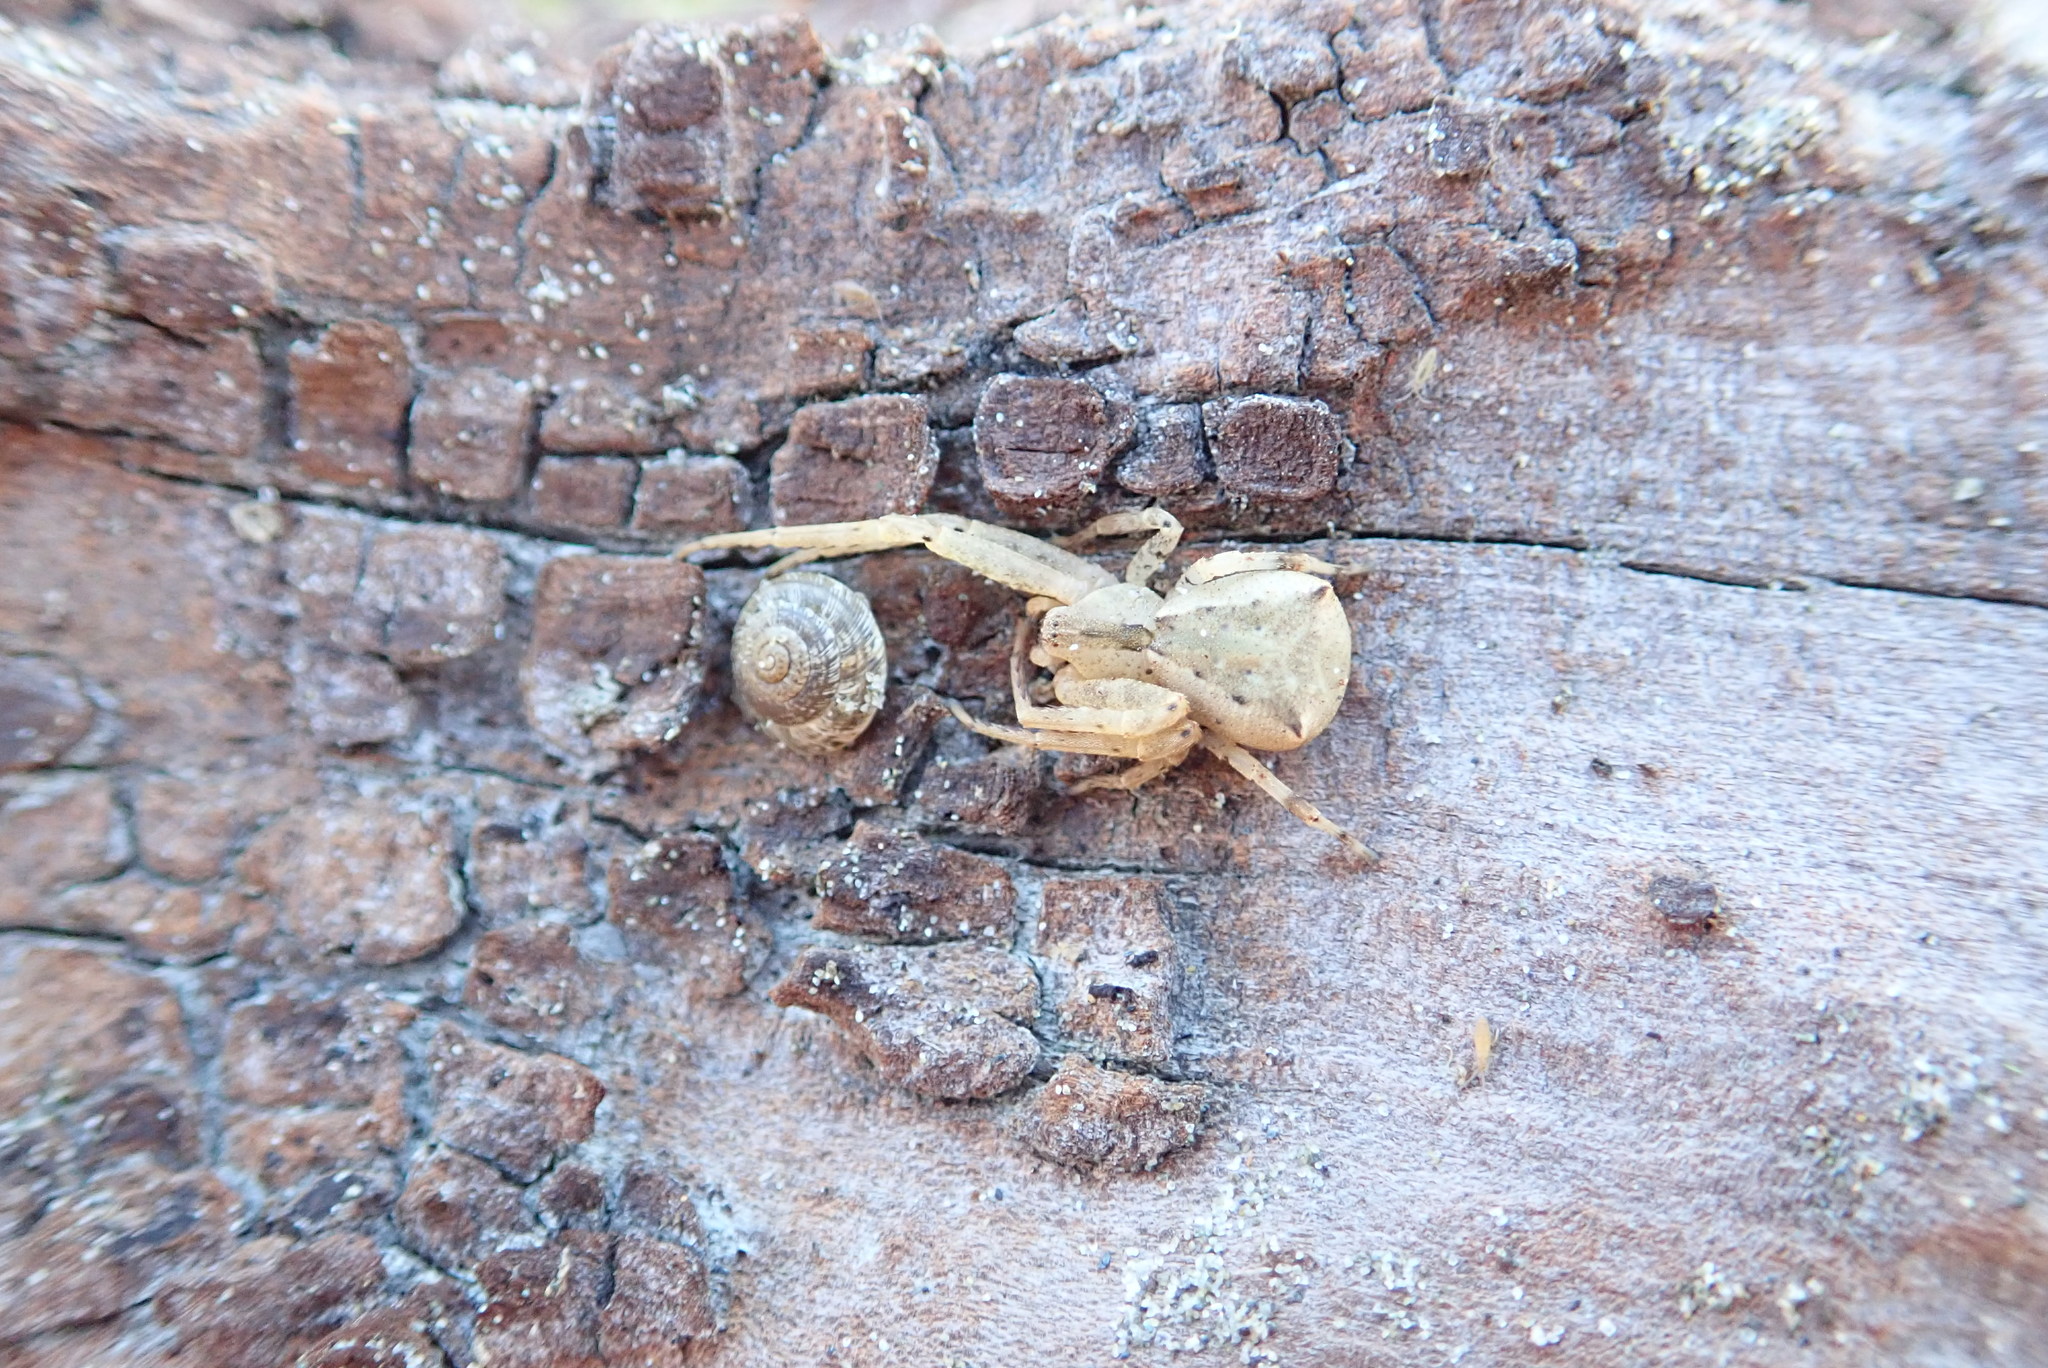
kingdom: Animalia
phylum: Arthropoda
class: Arachnida
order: Araneae
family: Thomisidae
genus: Sidymella
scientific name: Sidymella trapezia
